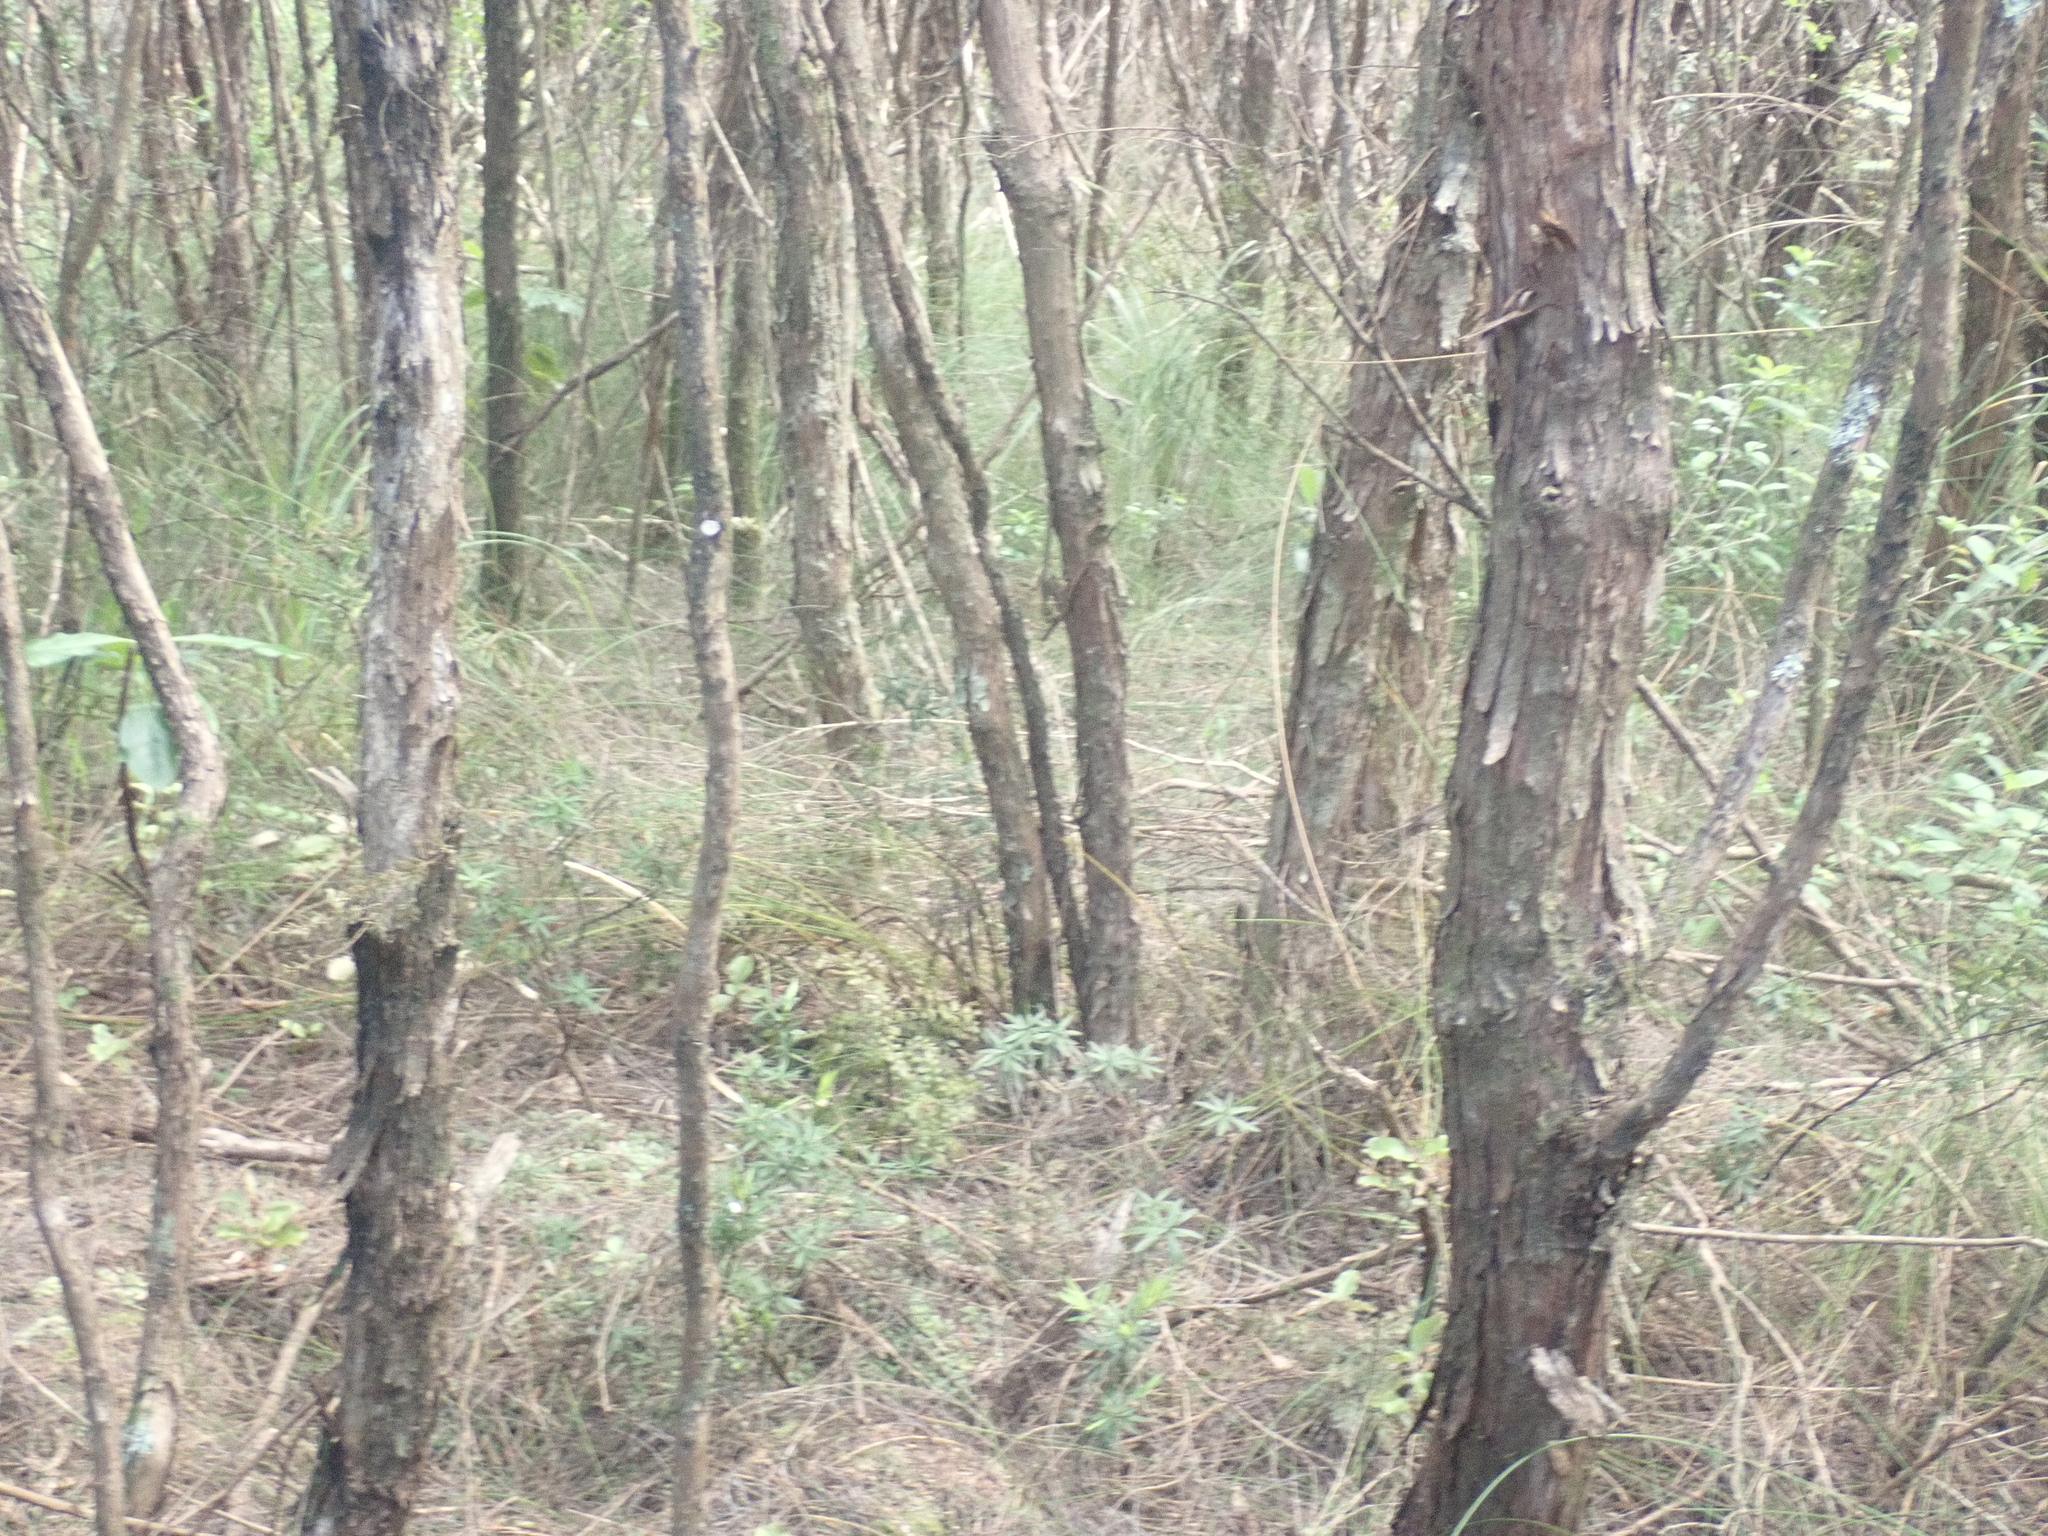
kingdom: Plantae
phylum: Tracheophyta
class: Pinopsida
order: Pinales
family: Phyllocladaceae
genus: Phyllocladus
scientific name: Phyllocladus trichomanoides
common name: Celery pine
